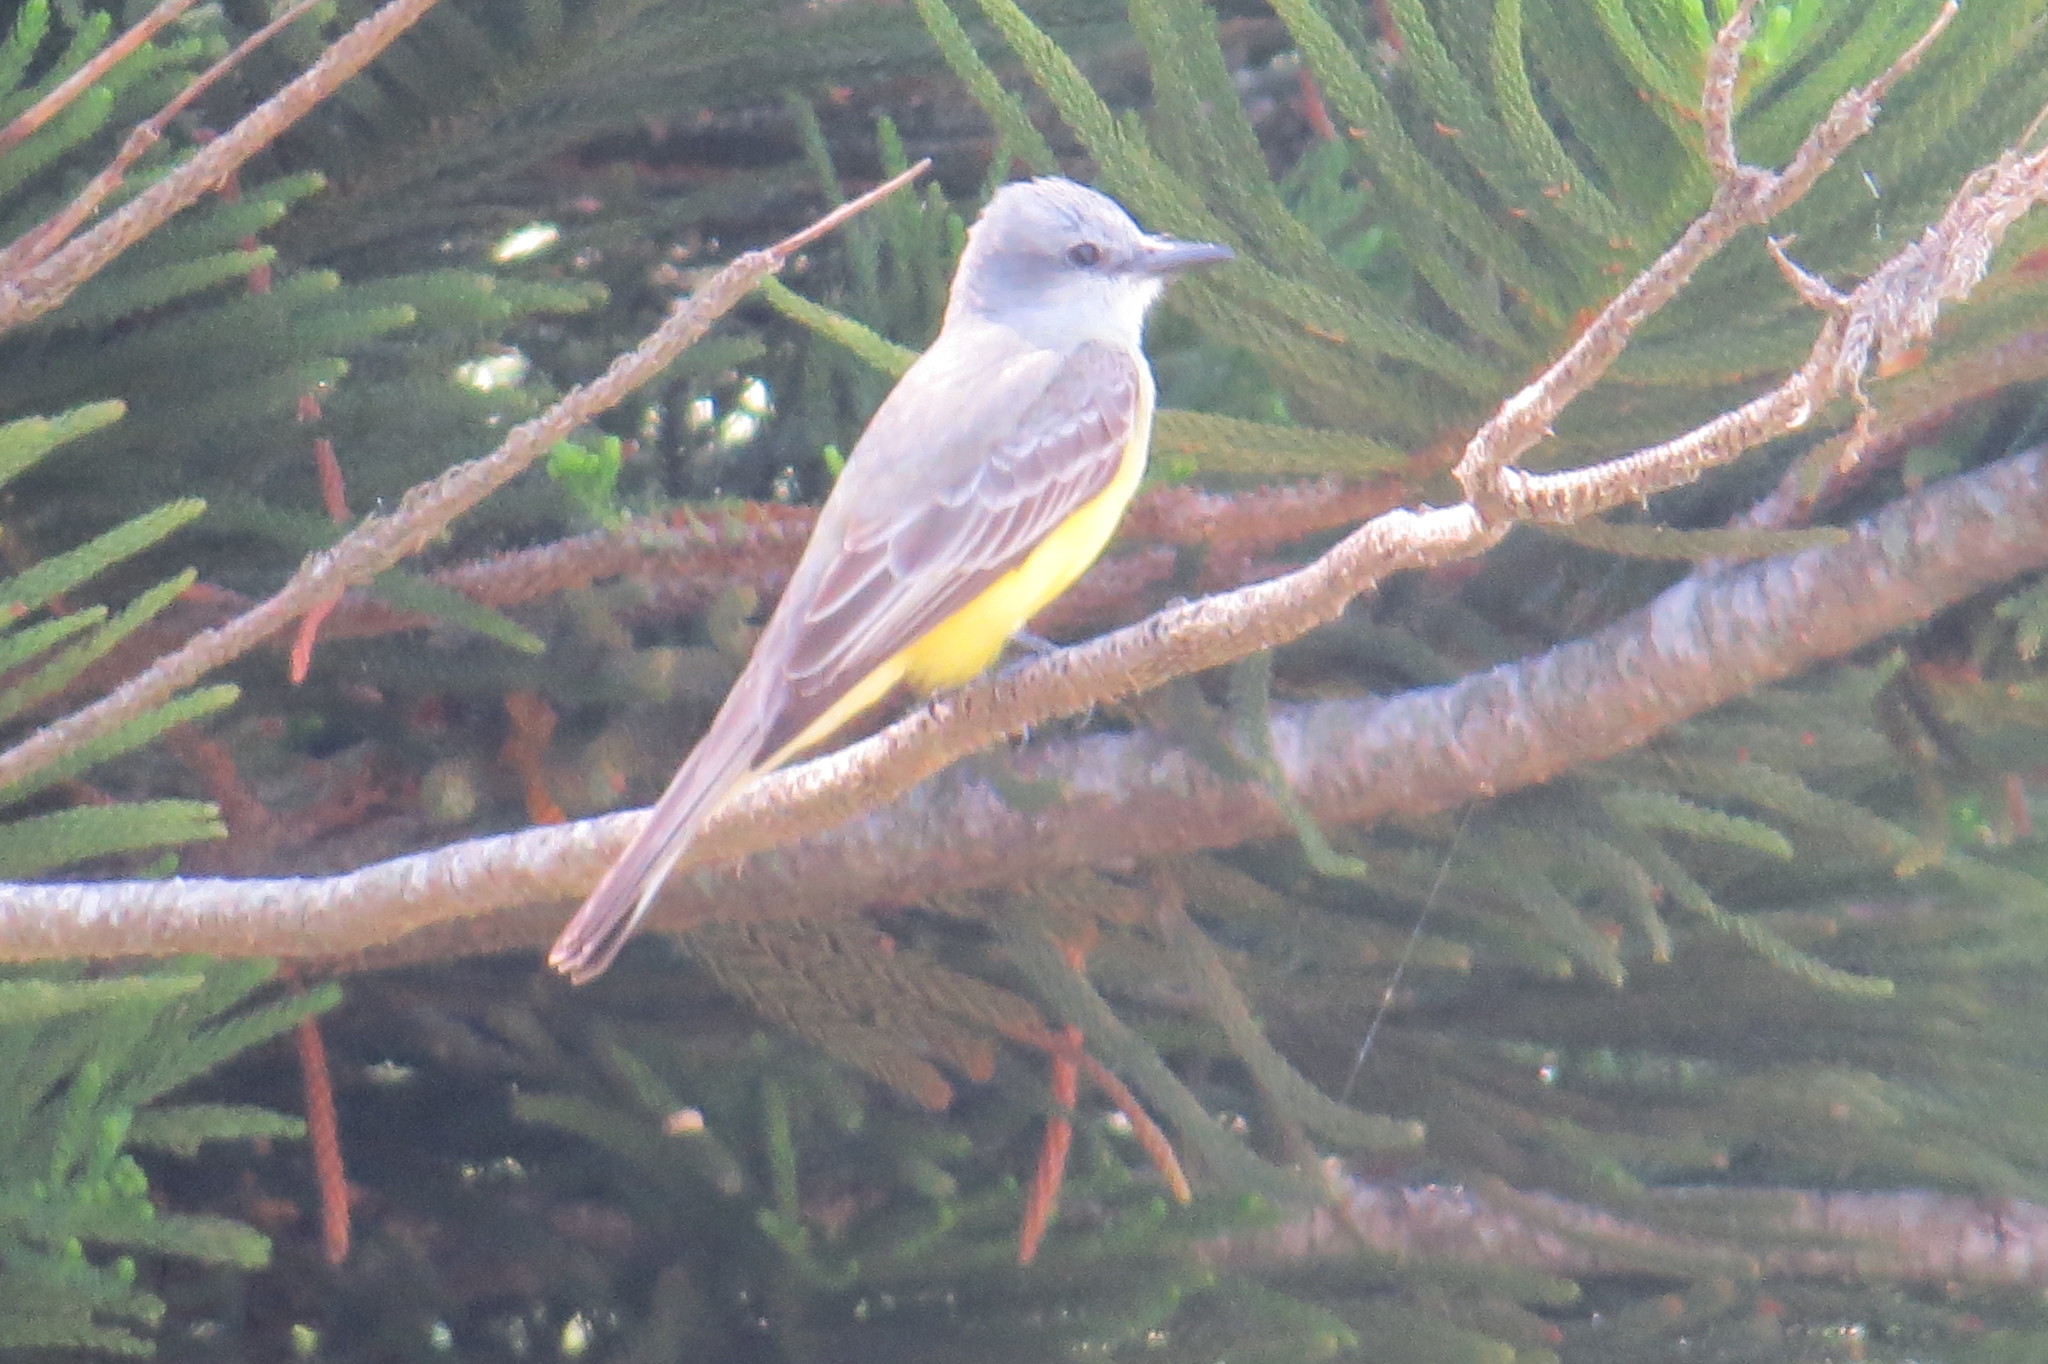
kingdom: Animalia
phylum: Chordata
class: Aves
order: Passeriformes
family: Tyrannidae
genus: Tyrannus
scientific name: Tyrannus couchii
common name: Couch's kingbird
